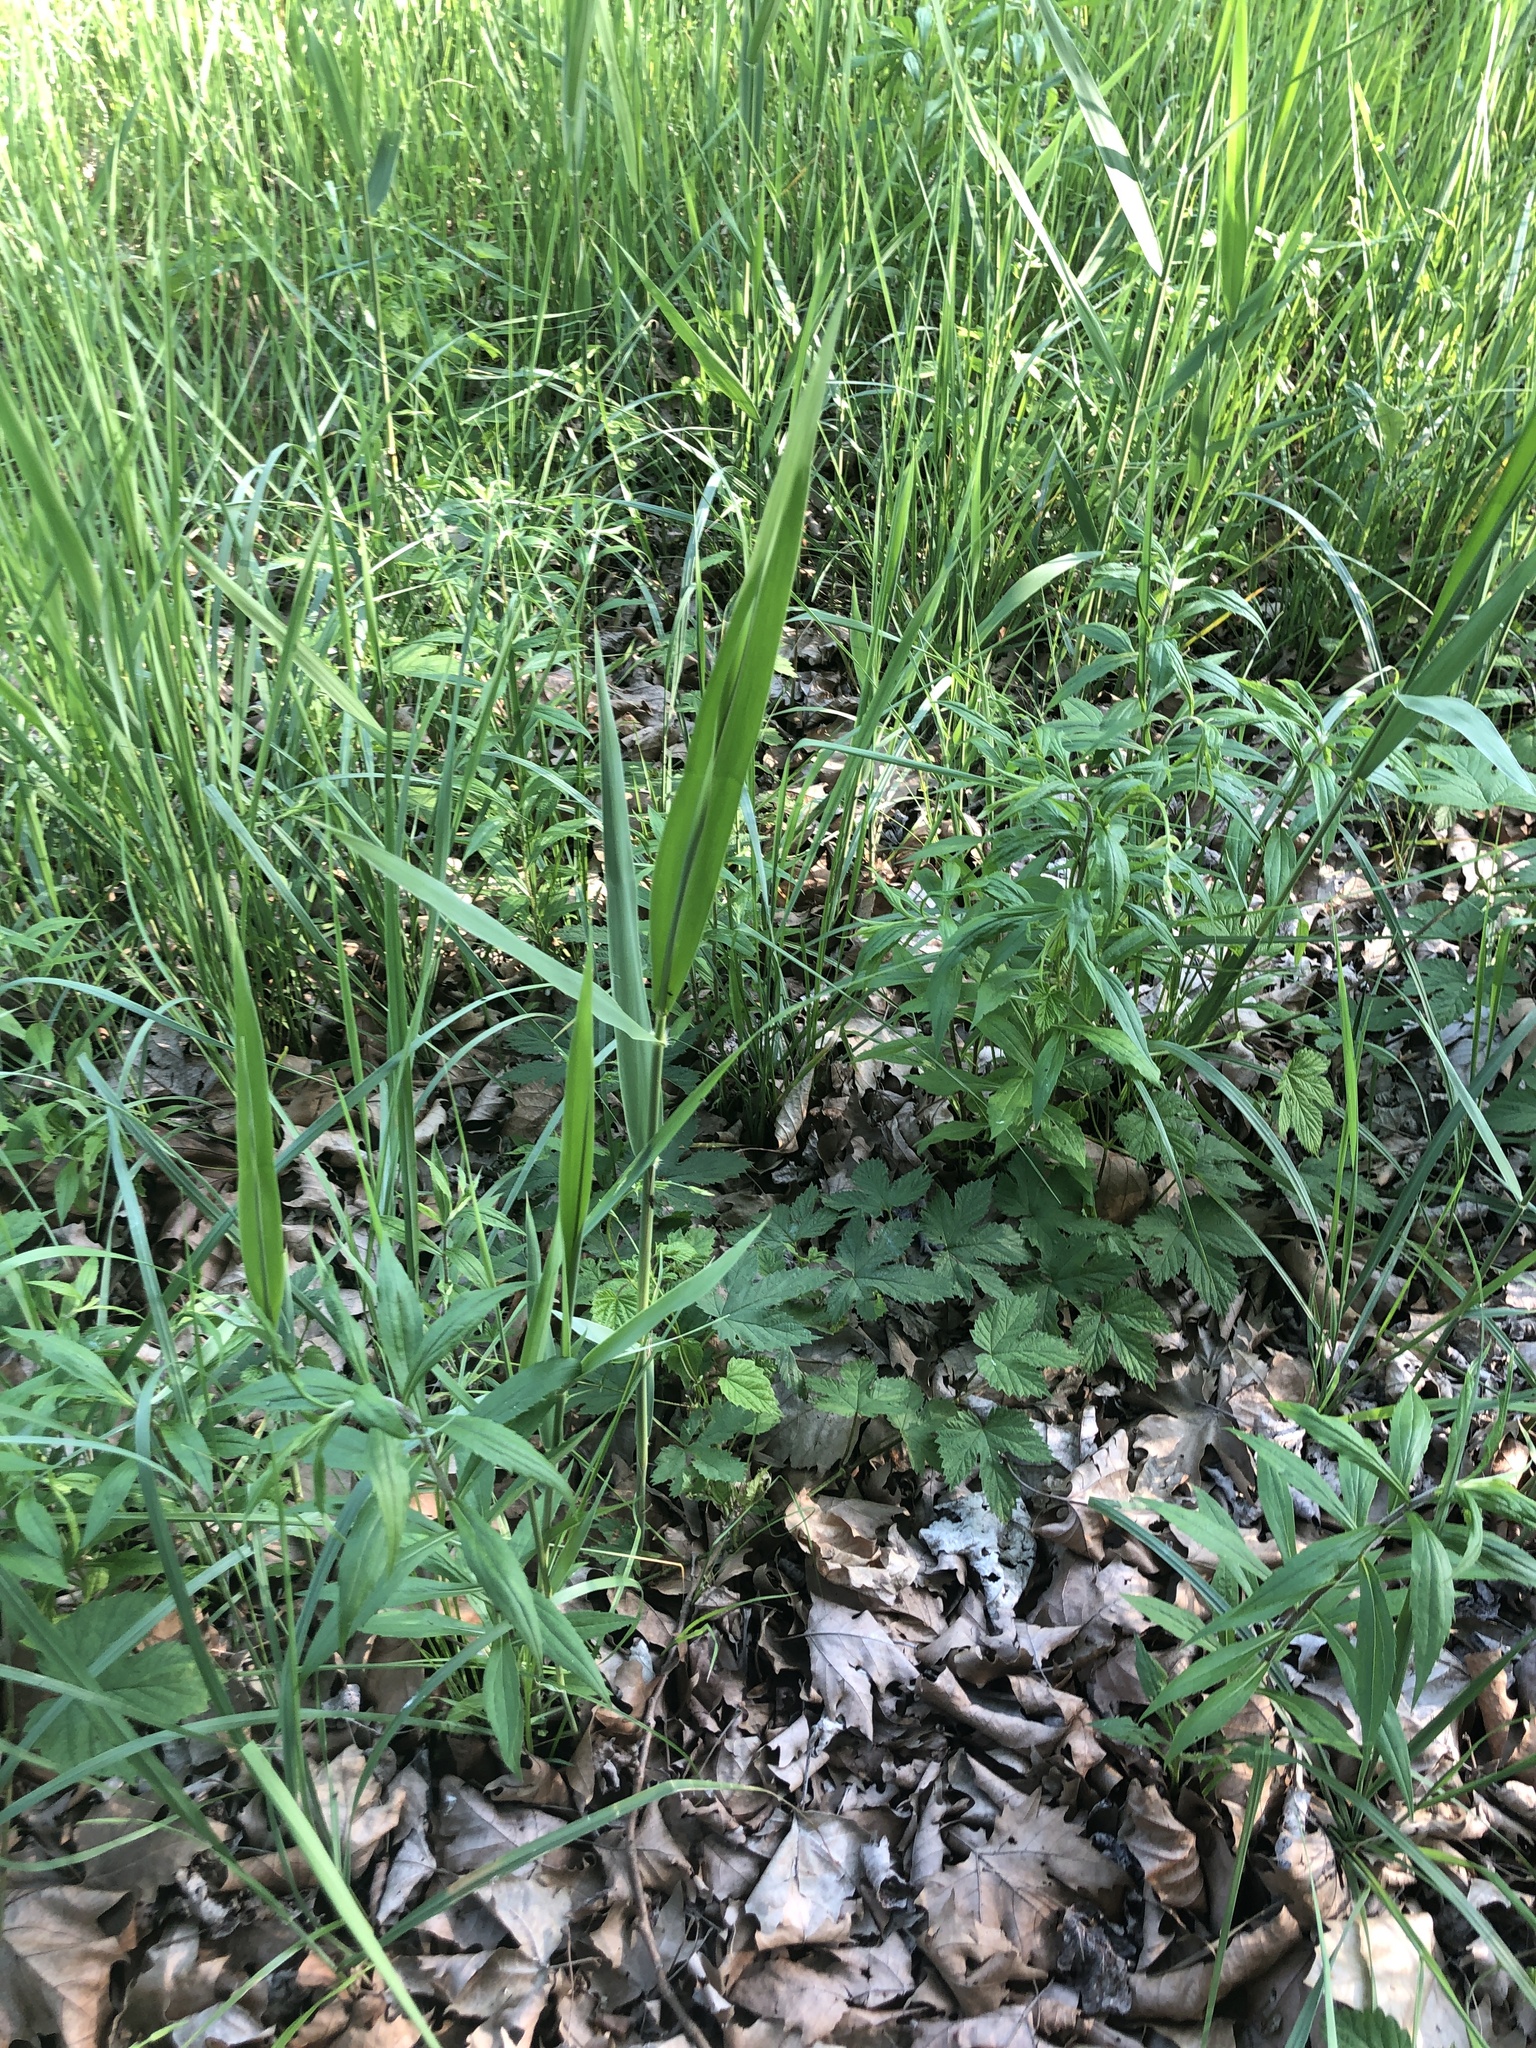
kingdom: Plantae
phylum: Tracheophyta
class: Liliopsida
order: Poales
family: Poaceae
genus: Phragmites
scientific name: Phragmites australis
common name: Common reed
